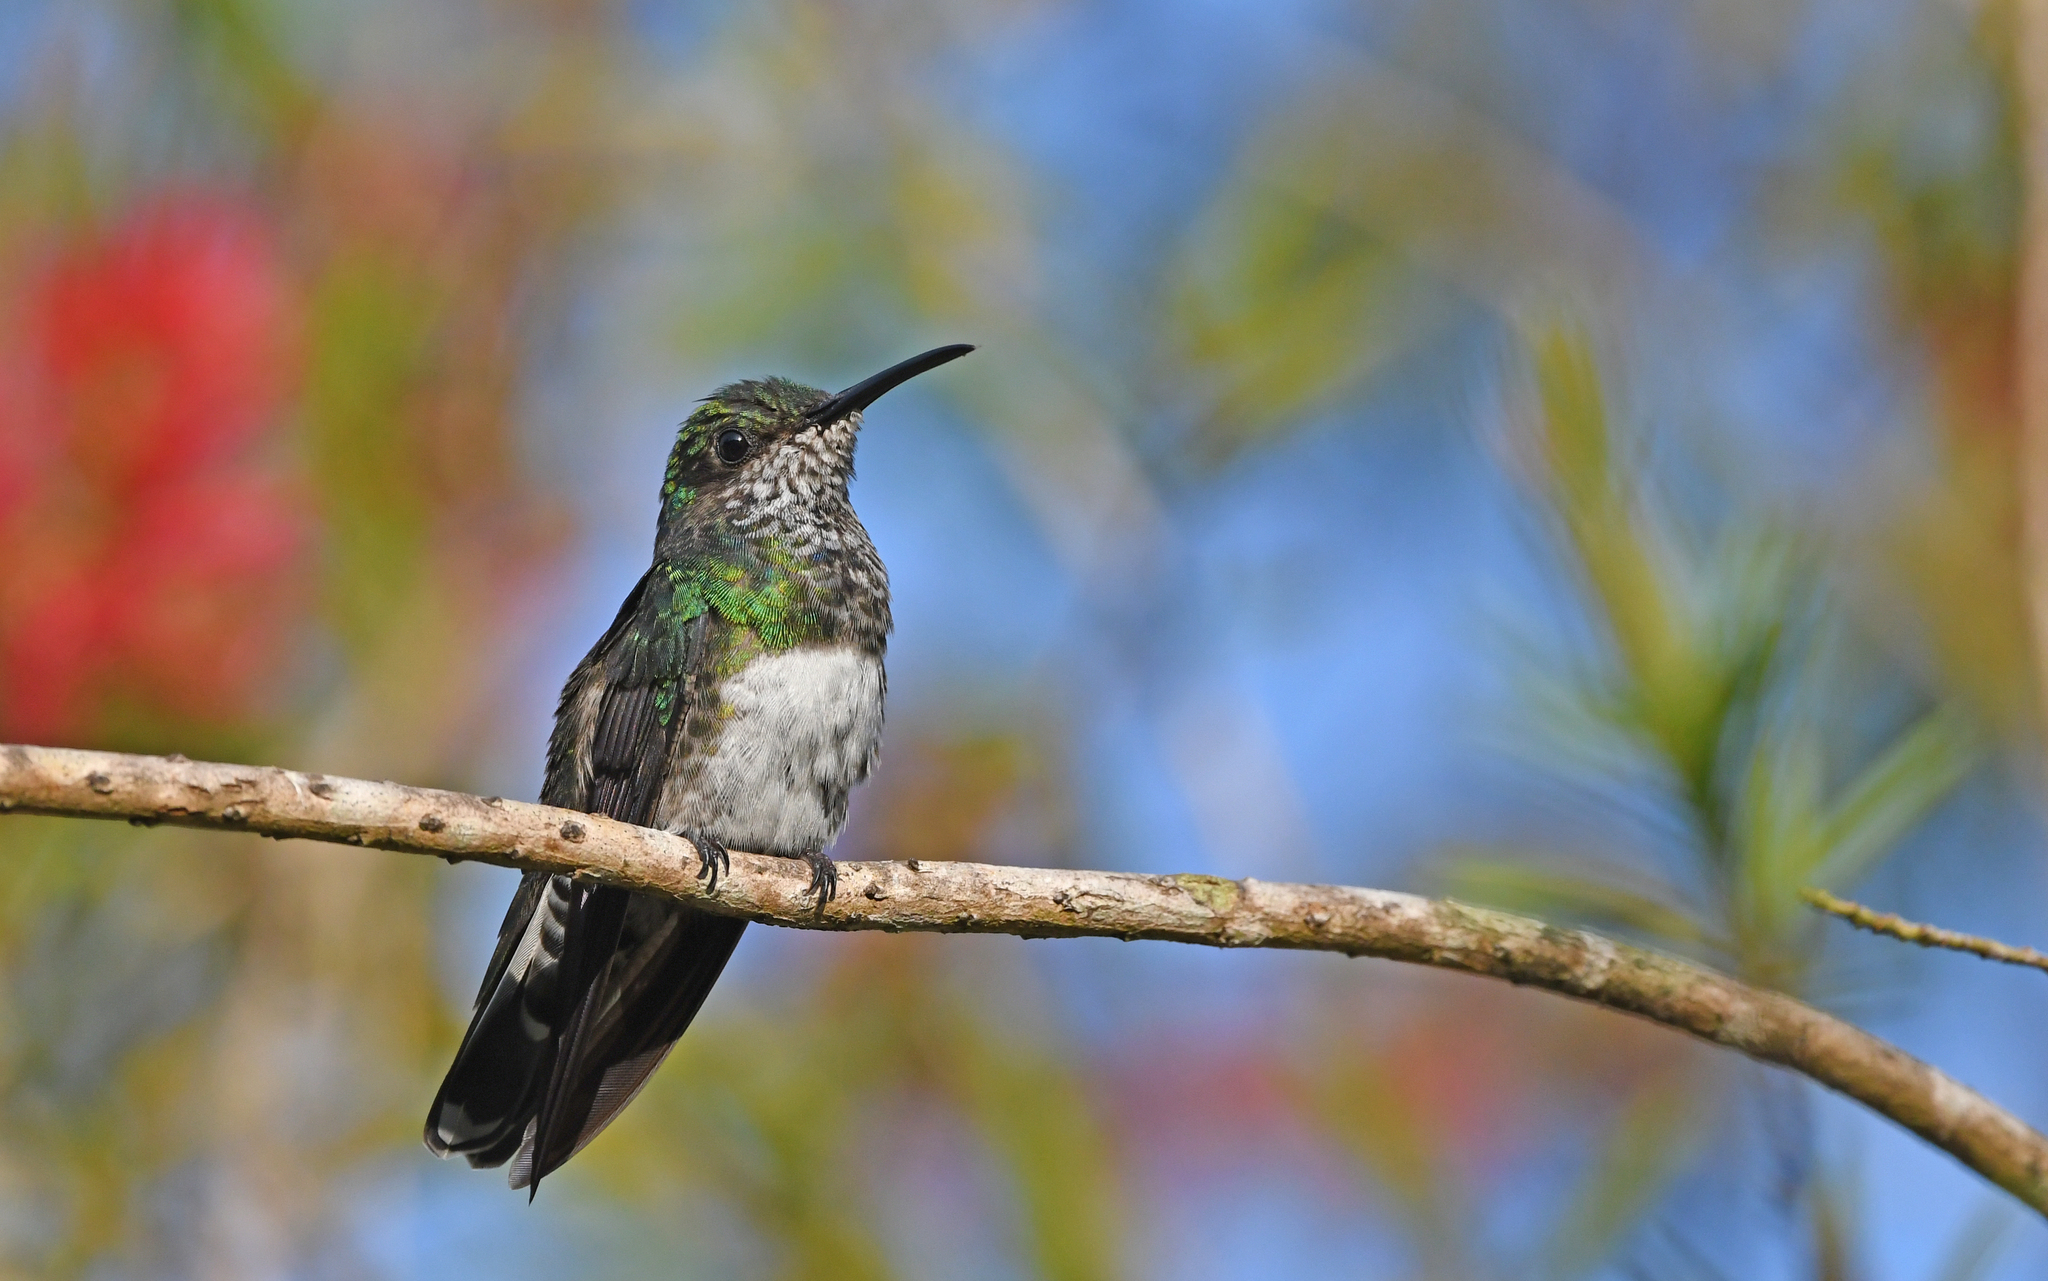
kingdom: Animalia
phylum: Chordata
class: Aves
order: Apodiformes
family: Trochilidae
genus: Florisuga
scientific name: Florisuga mellivora
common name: White-necked jacobin
